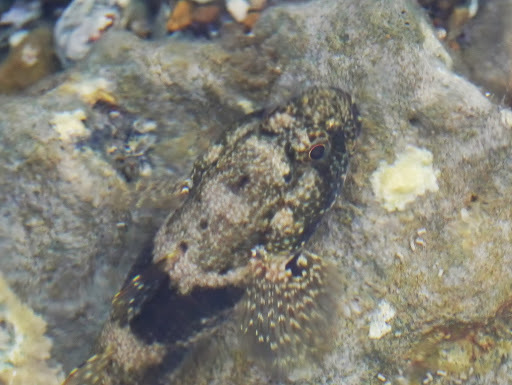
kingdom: Animalia
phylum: Chordata
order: Perciformes
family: Gobiidae
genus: Bathygobius
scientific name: Bathygobius soporator
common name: Frillfin goby
